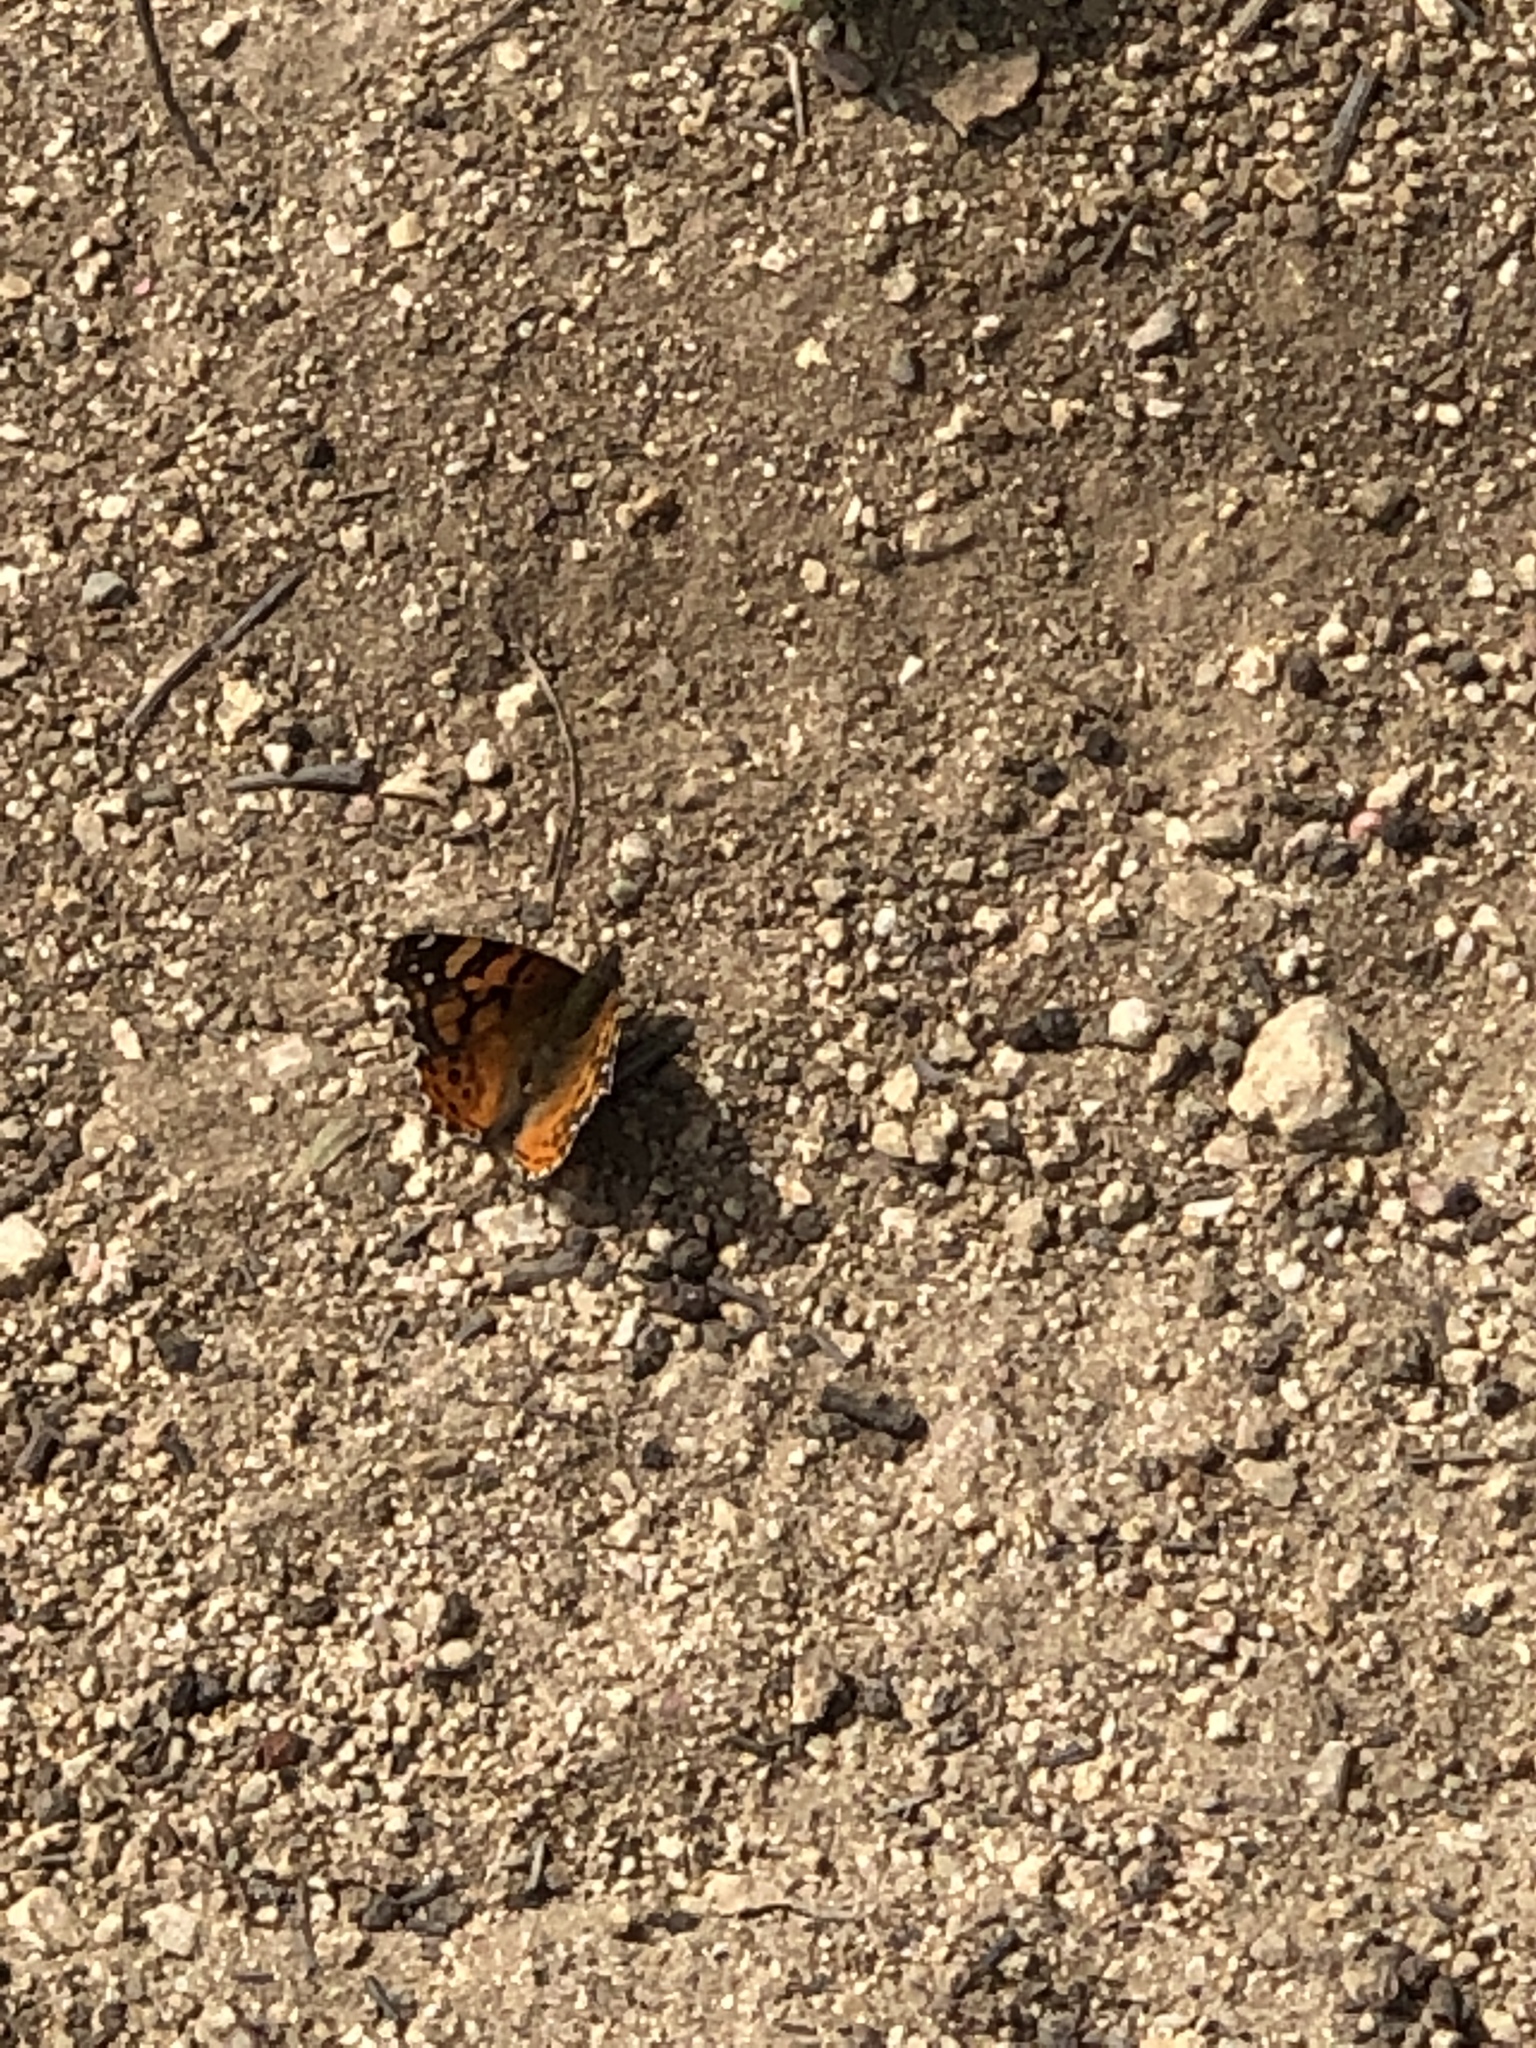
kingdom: Animalia
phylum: Arthropoda
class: Insecta
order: Lepidoptera
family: Nymphalidae
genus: Vanessa
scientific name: Vanessa annabella
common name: West coast lady
